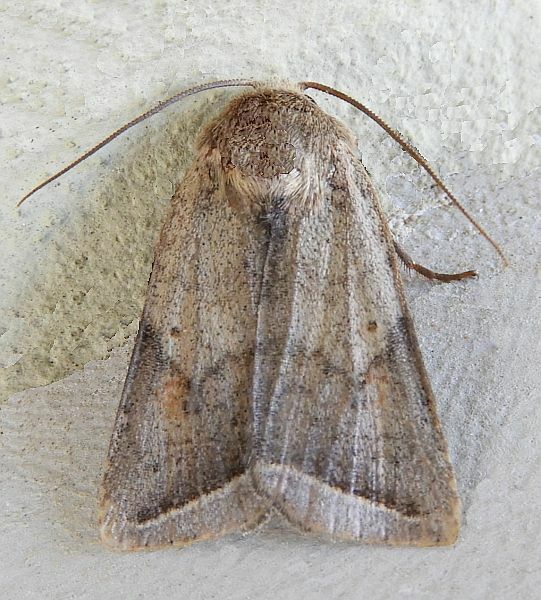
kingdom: Animalia
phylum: Arthropoda
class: Insecta
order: Lepidoptera
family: Noctuidae
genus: Eriopyga
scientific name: Eriopyga parallela
